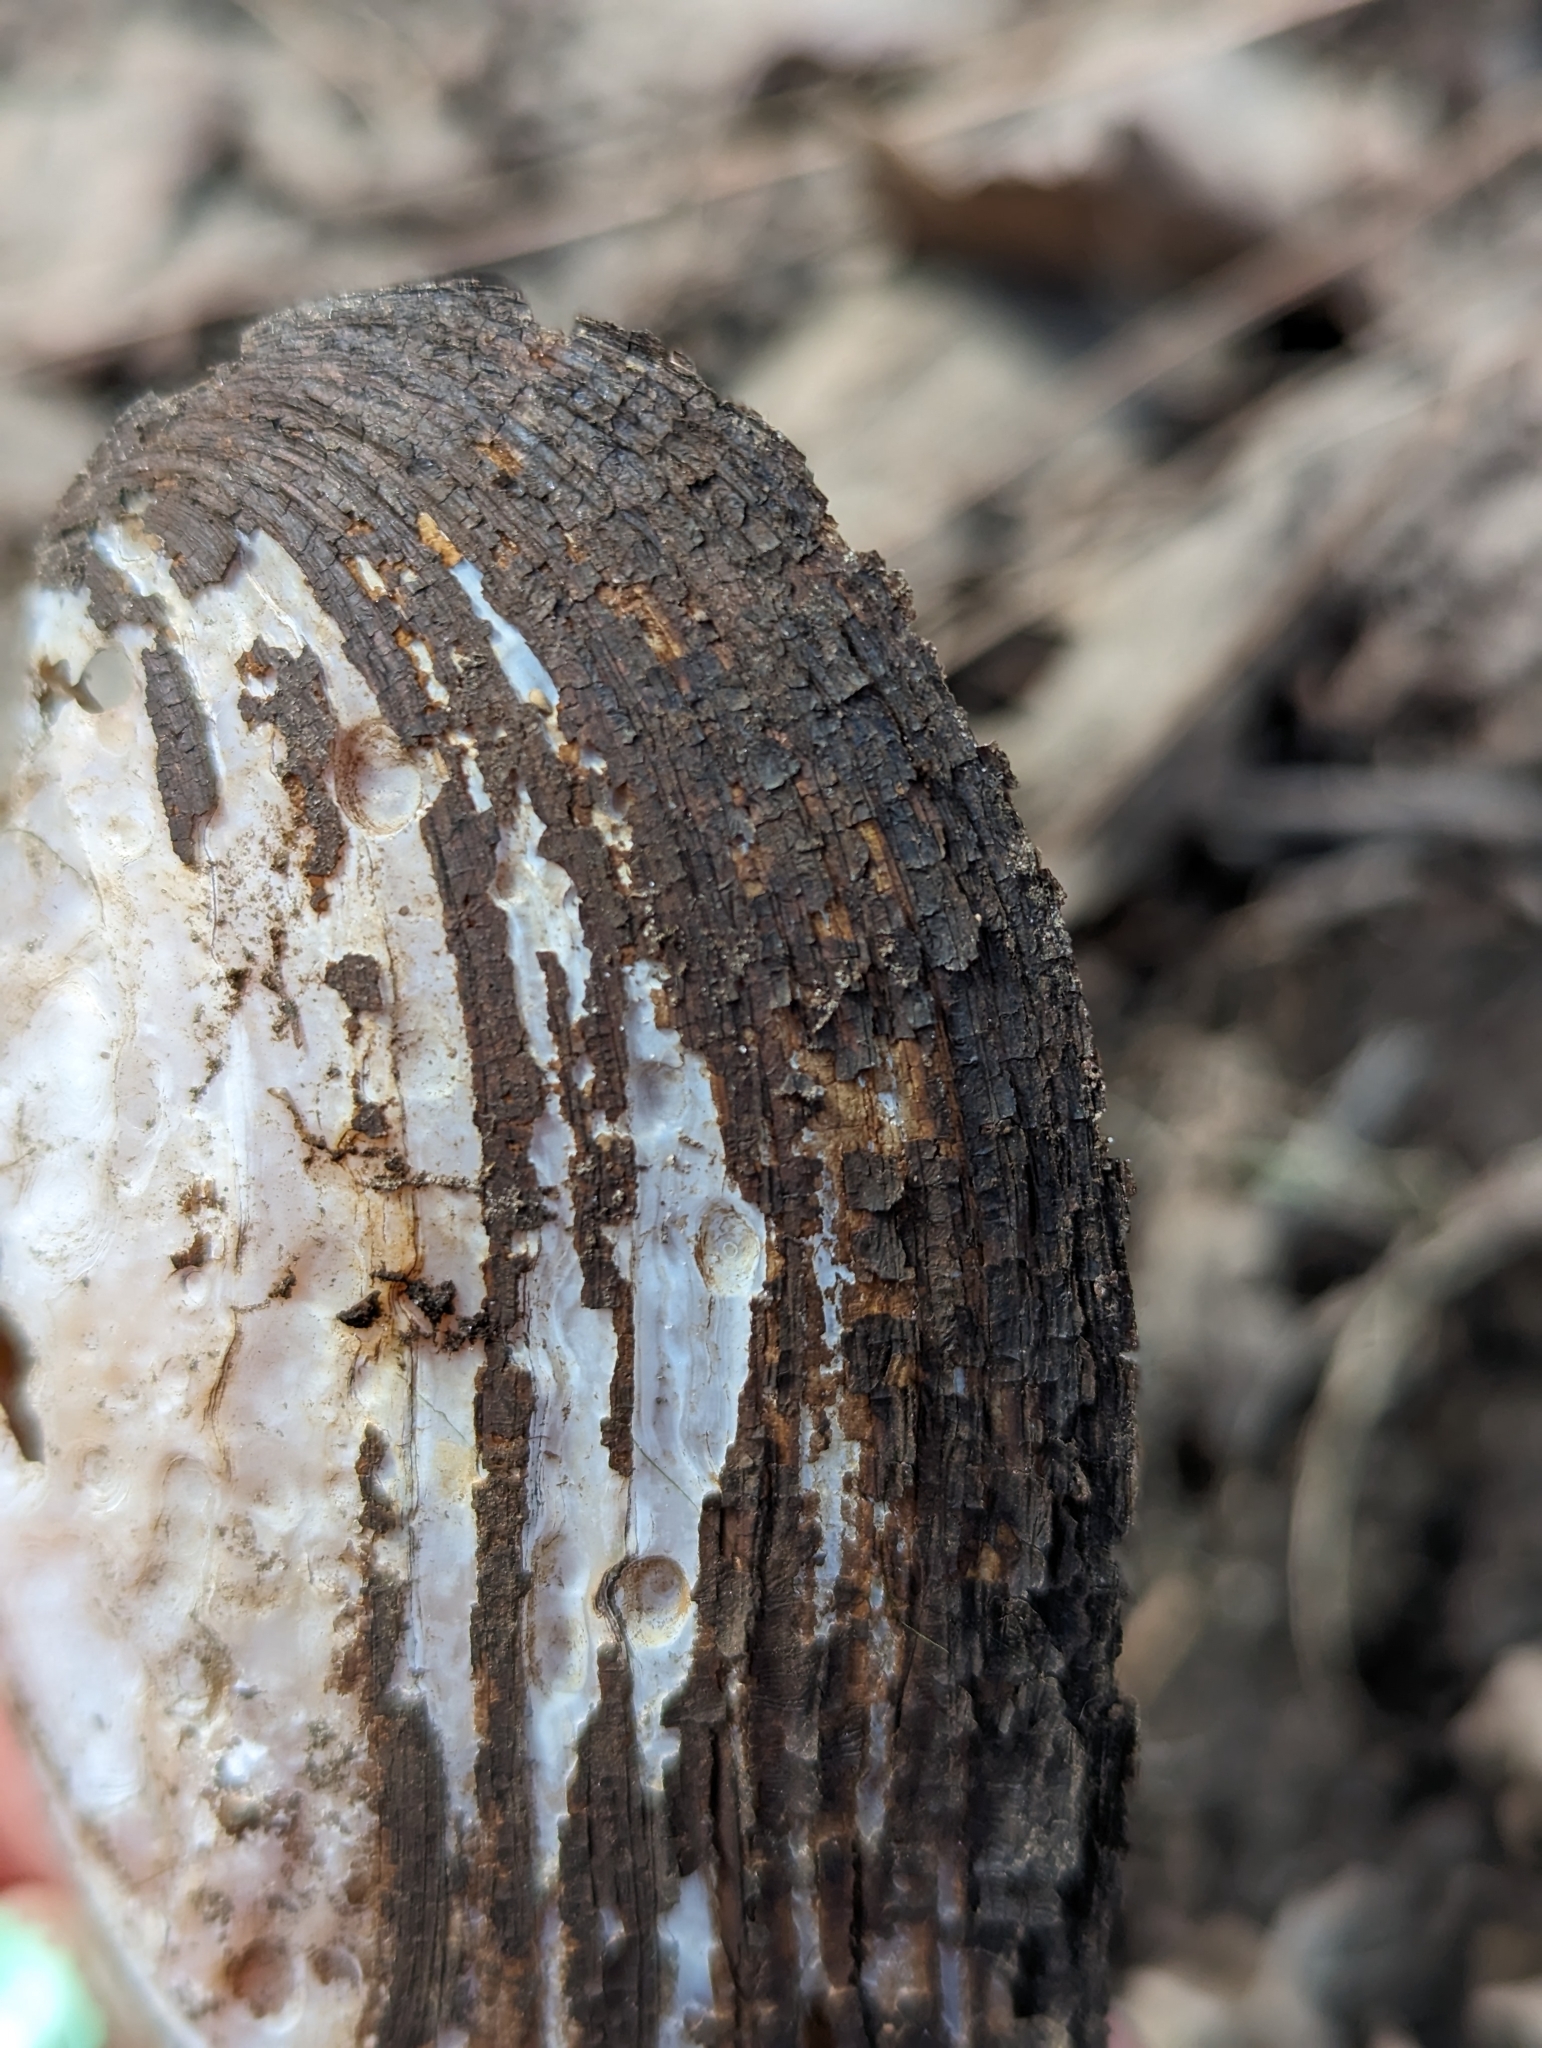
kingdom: Animalia
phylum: Mollusca
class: Bivalvia
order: Unionida
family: Unionidae
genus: Elliptio
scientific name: Elliptio complanata
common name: Eastern elliptio
